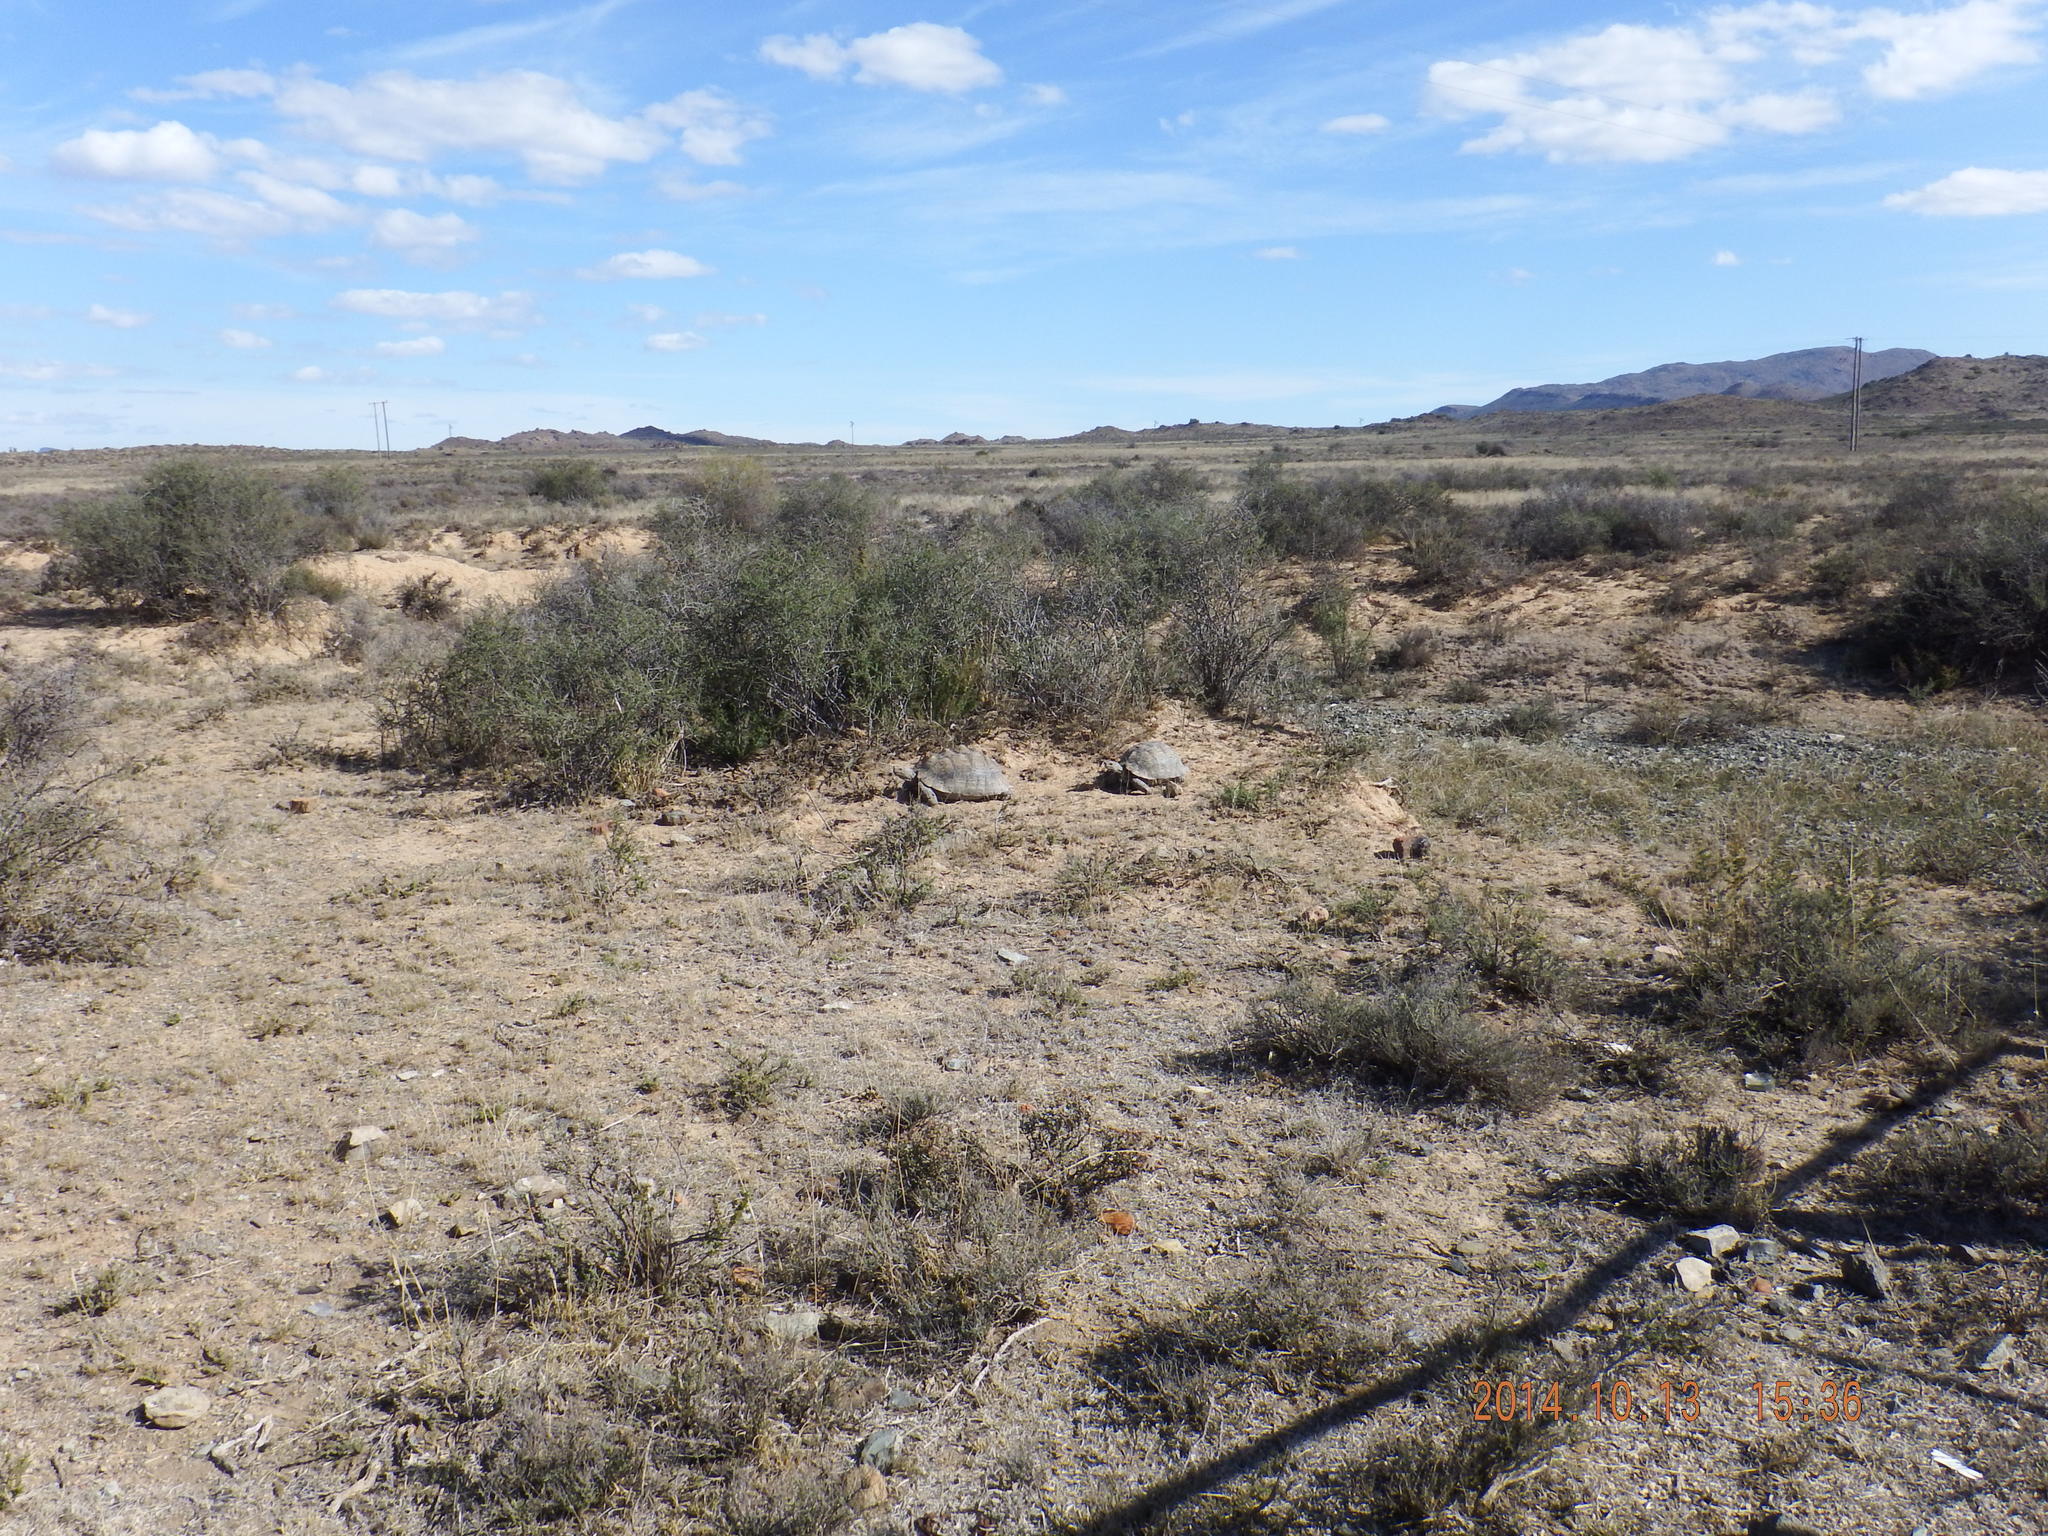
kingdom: Animalia
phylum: Chordata
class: Testudines
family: Testudinidae
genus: Stigmochelys
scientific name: Stigmochelys pardalis
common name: Leopard tortoise
